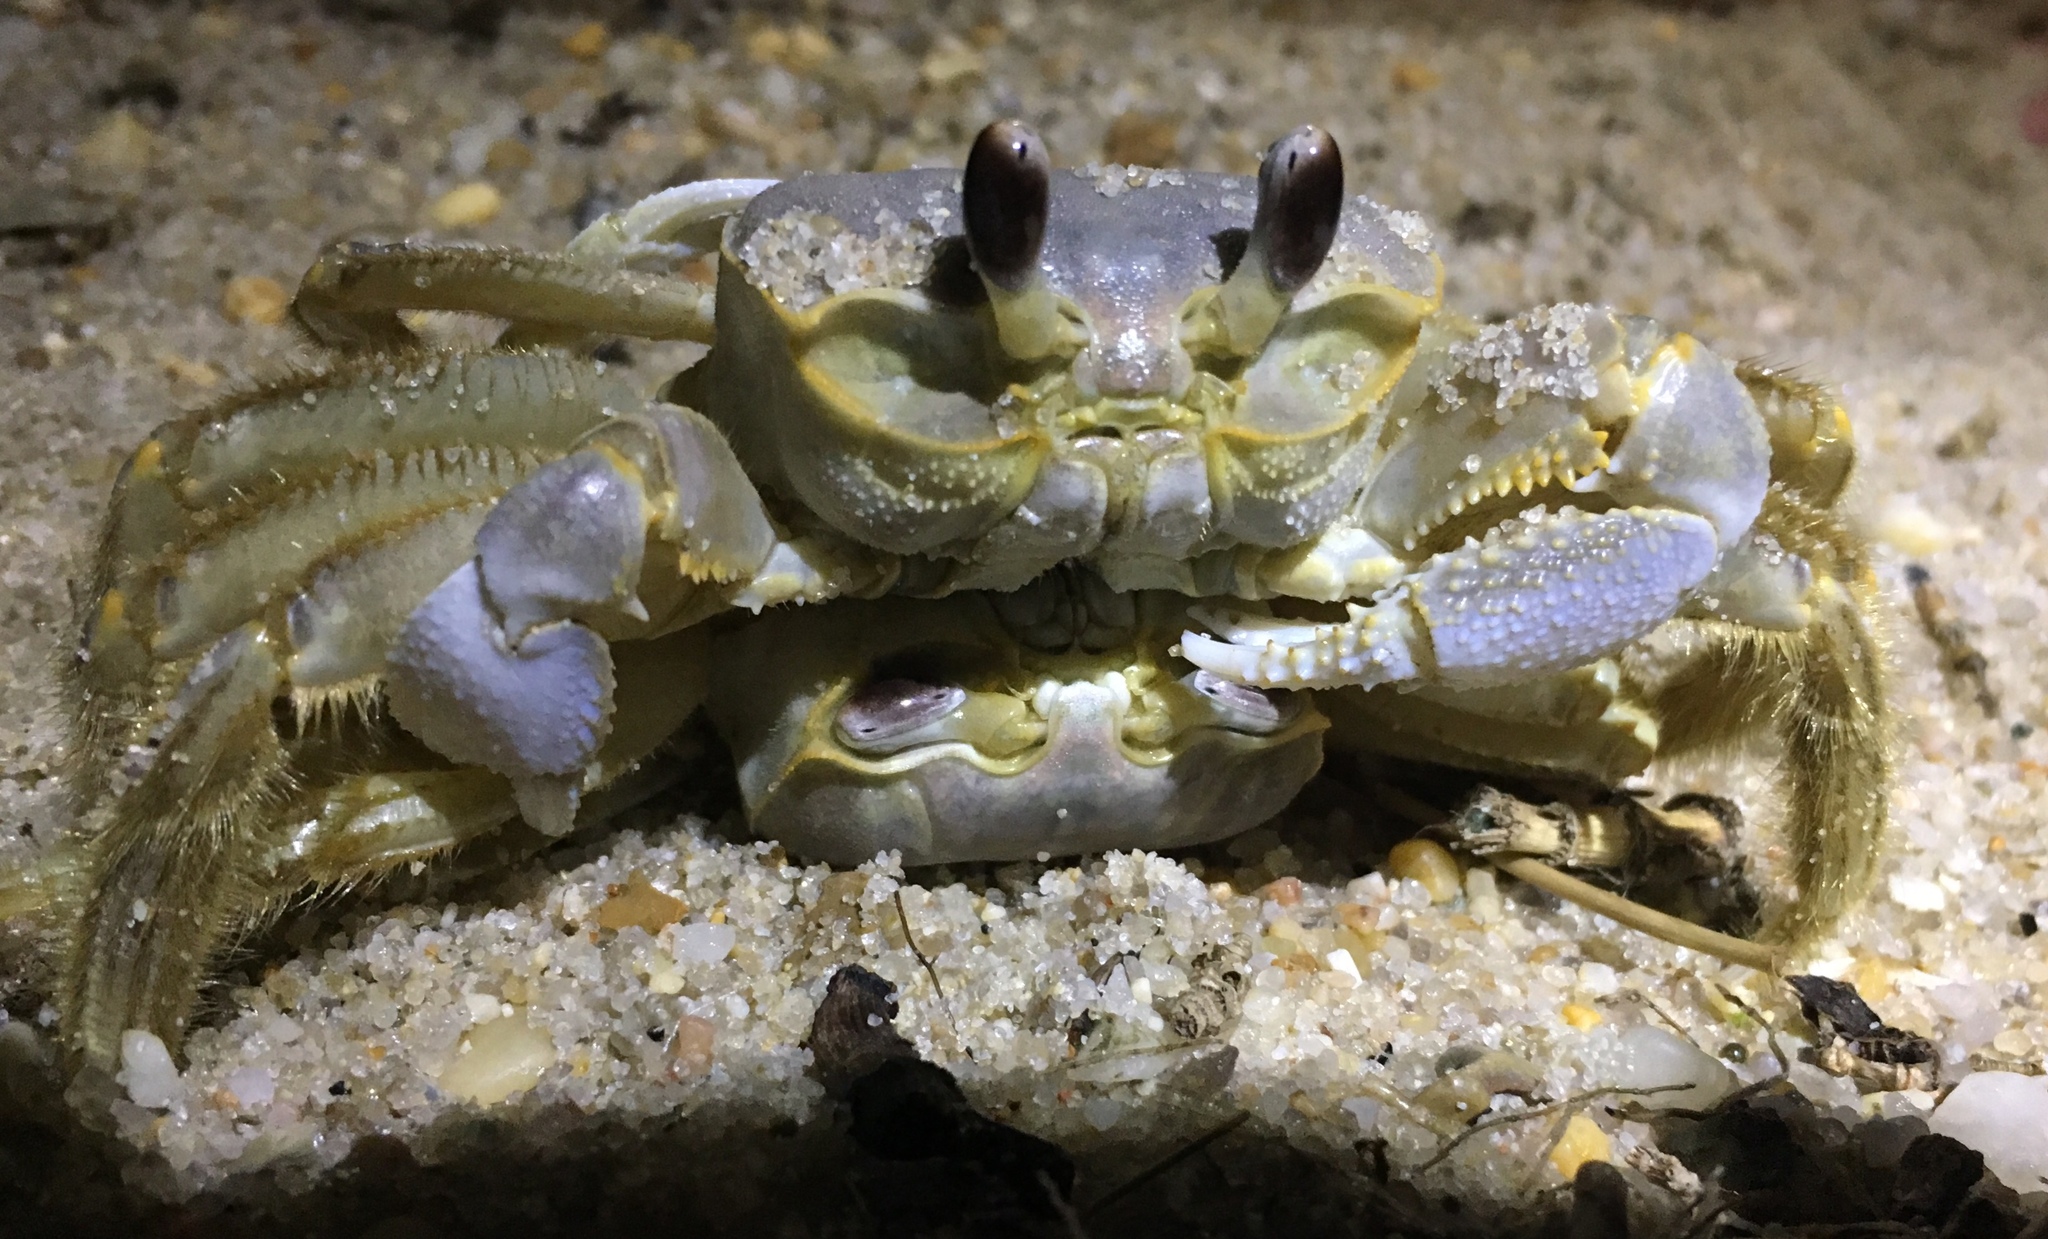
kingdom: Animalia
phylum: Arthropoda
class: Malacostraca
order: Decapoda
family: Ocypodidae
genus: Ocypode
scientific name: Ocypode quadrata
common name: Ghost crab
